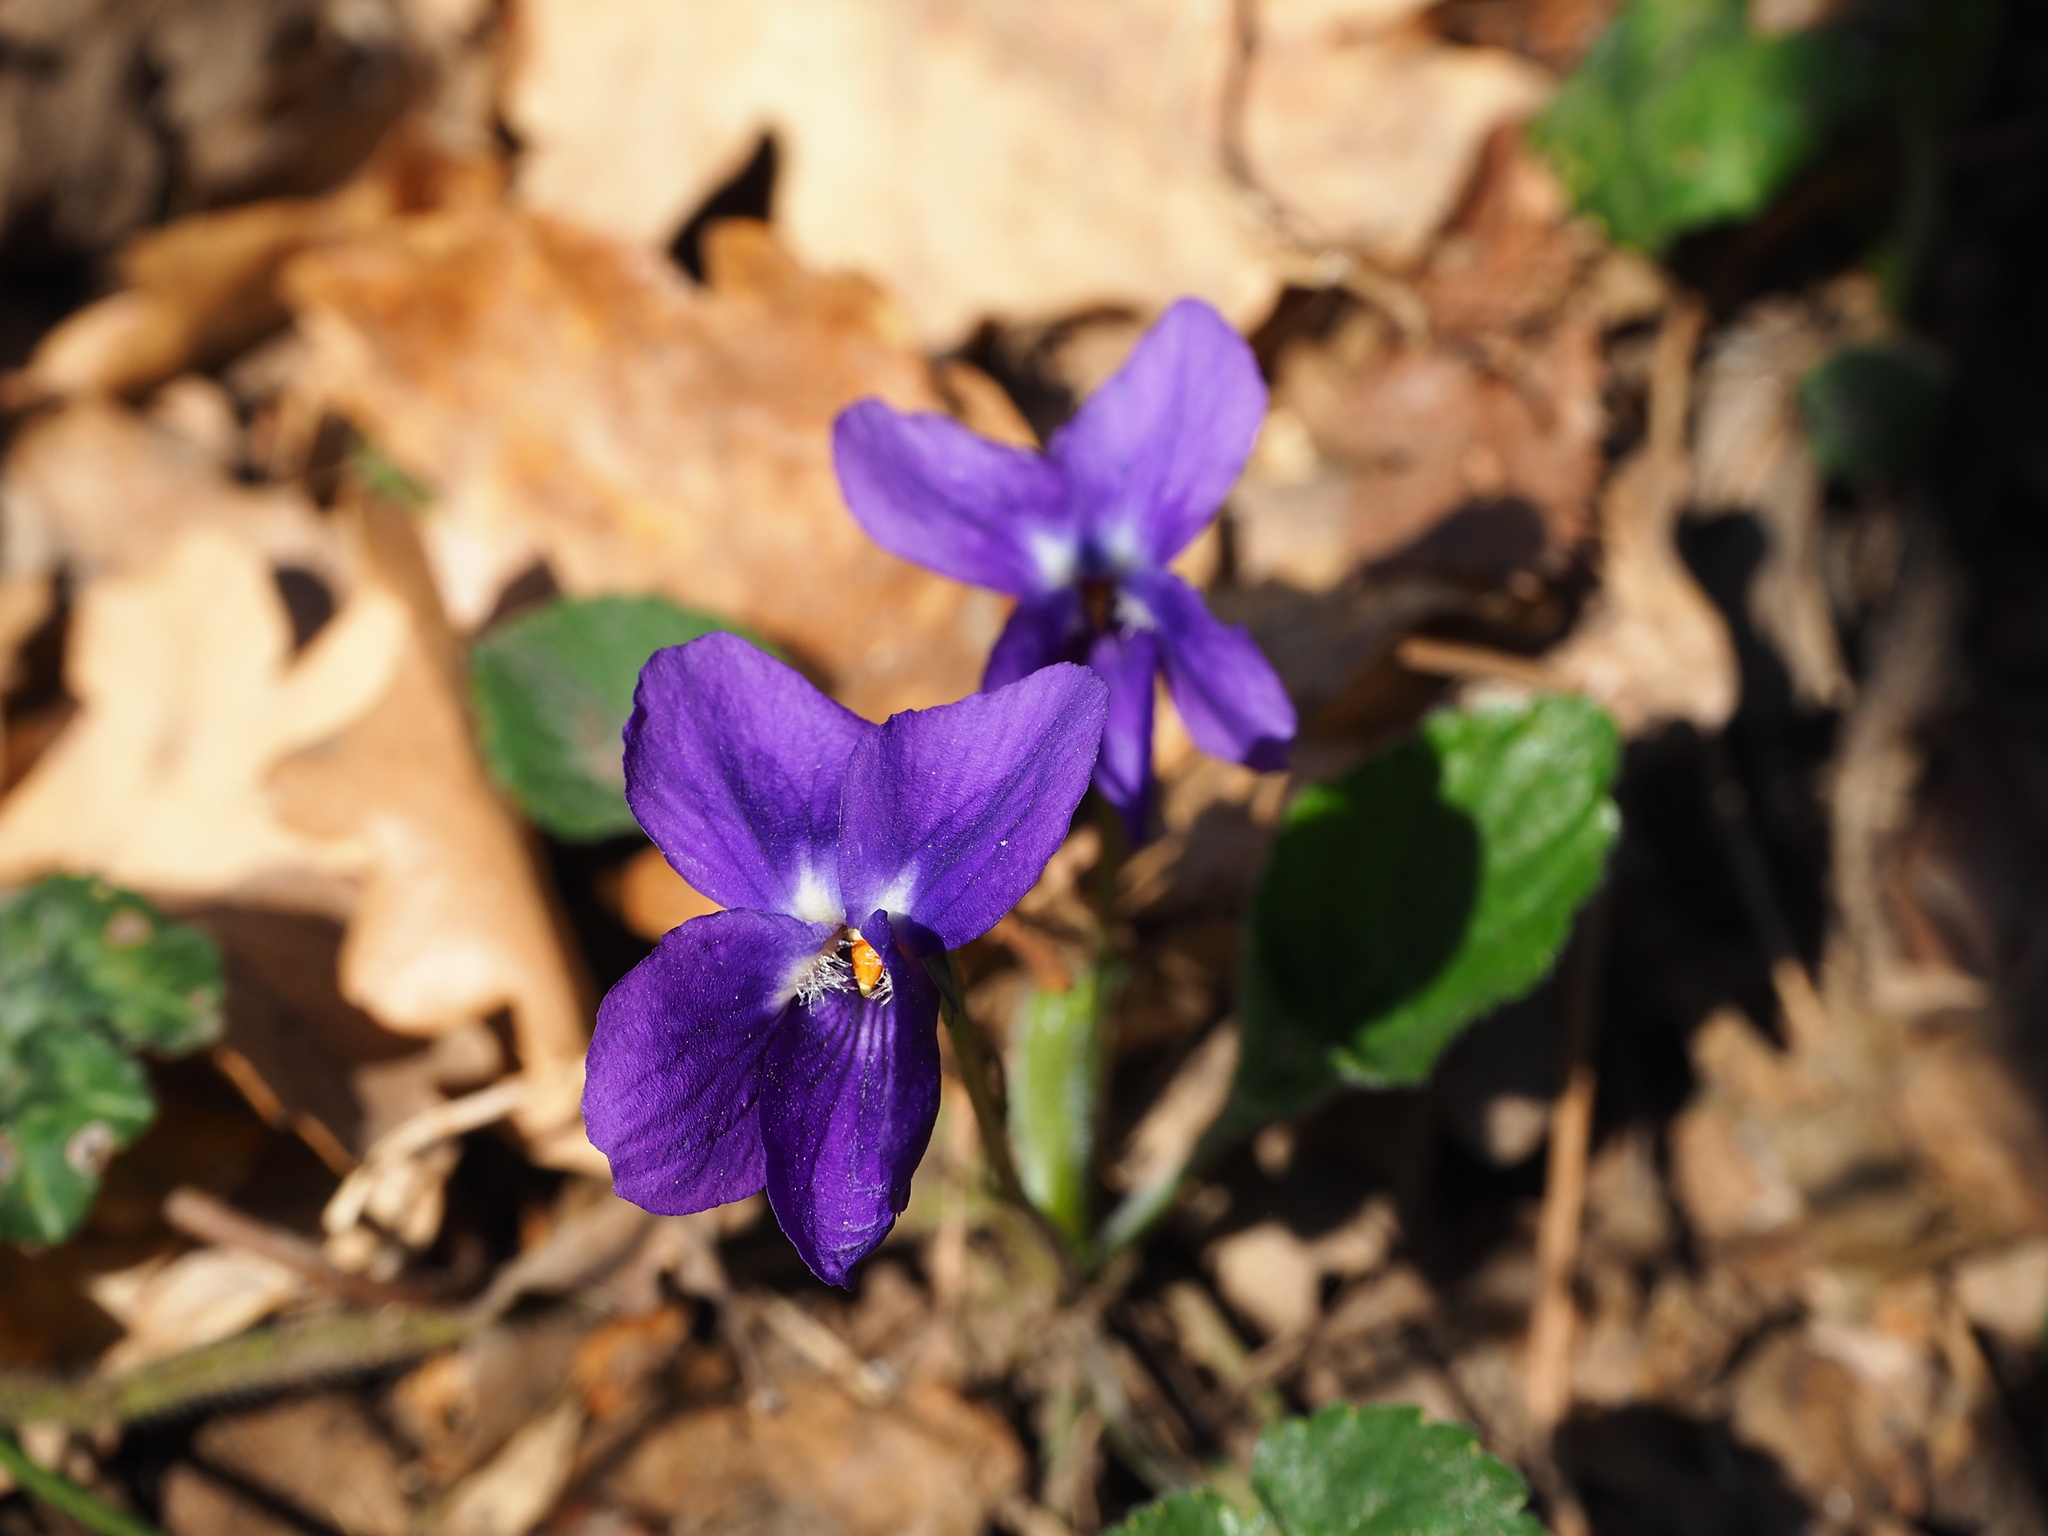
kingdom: Plantae
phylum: Tracheophyta
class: Magnoliopsida
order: Malpighiales
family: Violaceae
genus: Viola
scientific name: Viola odorata
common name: Sweet violet
